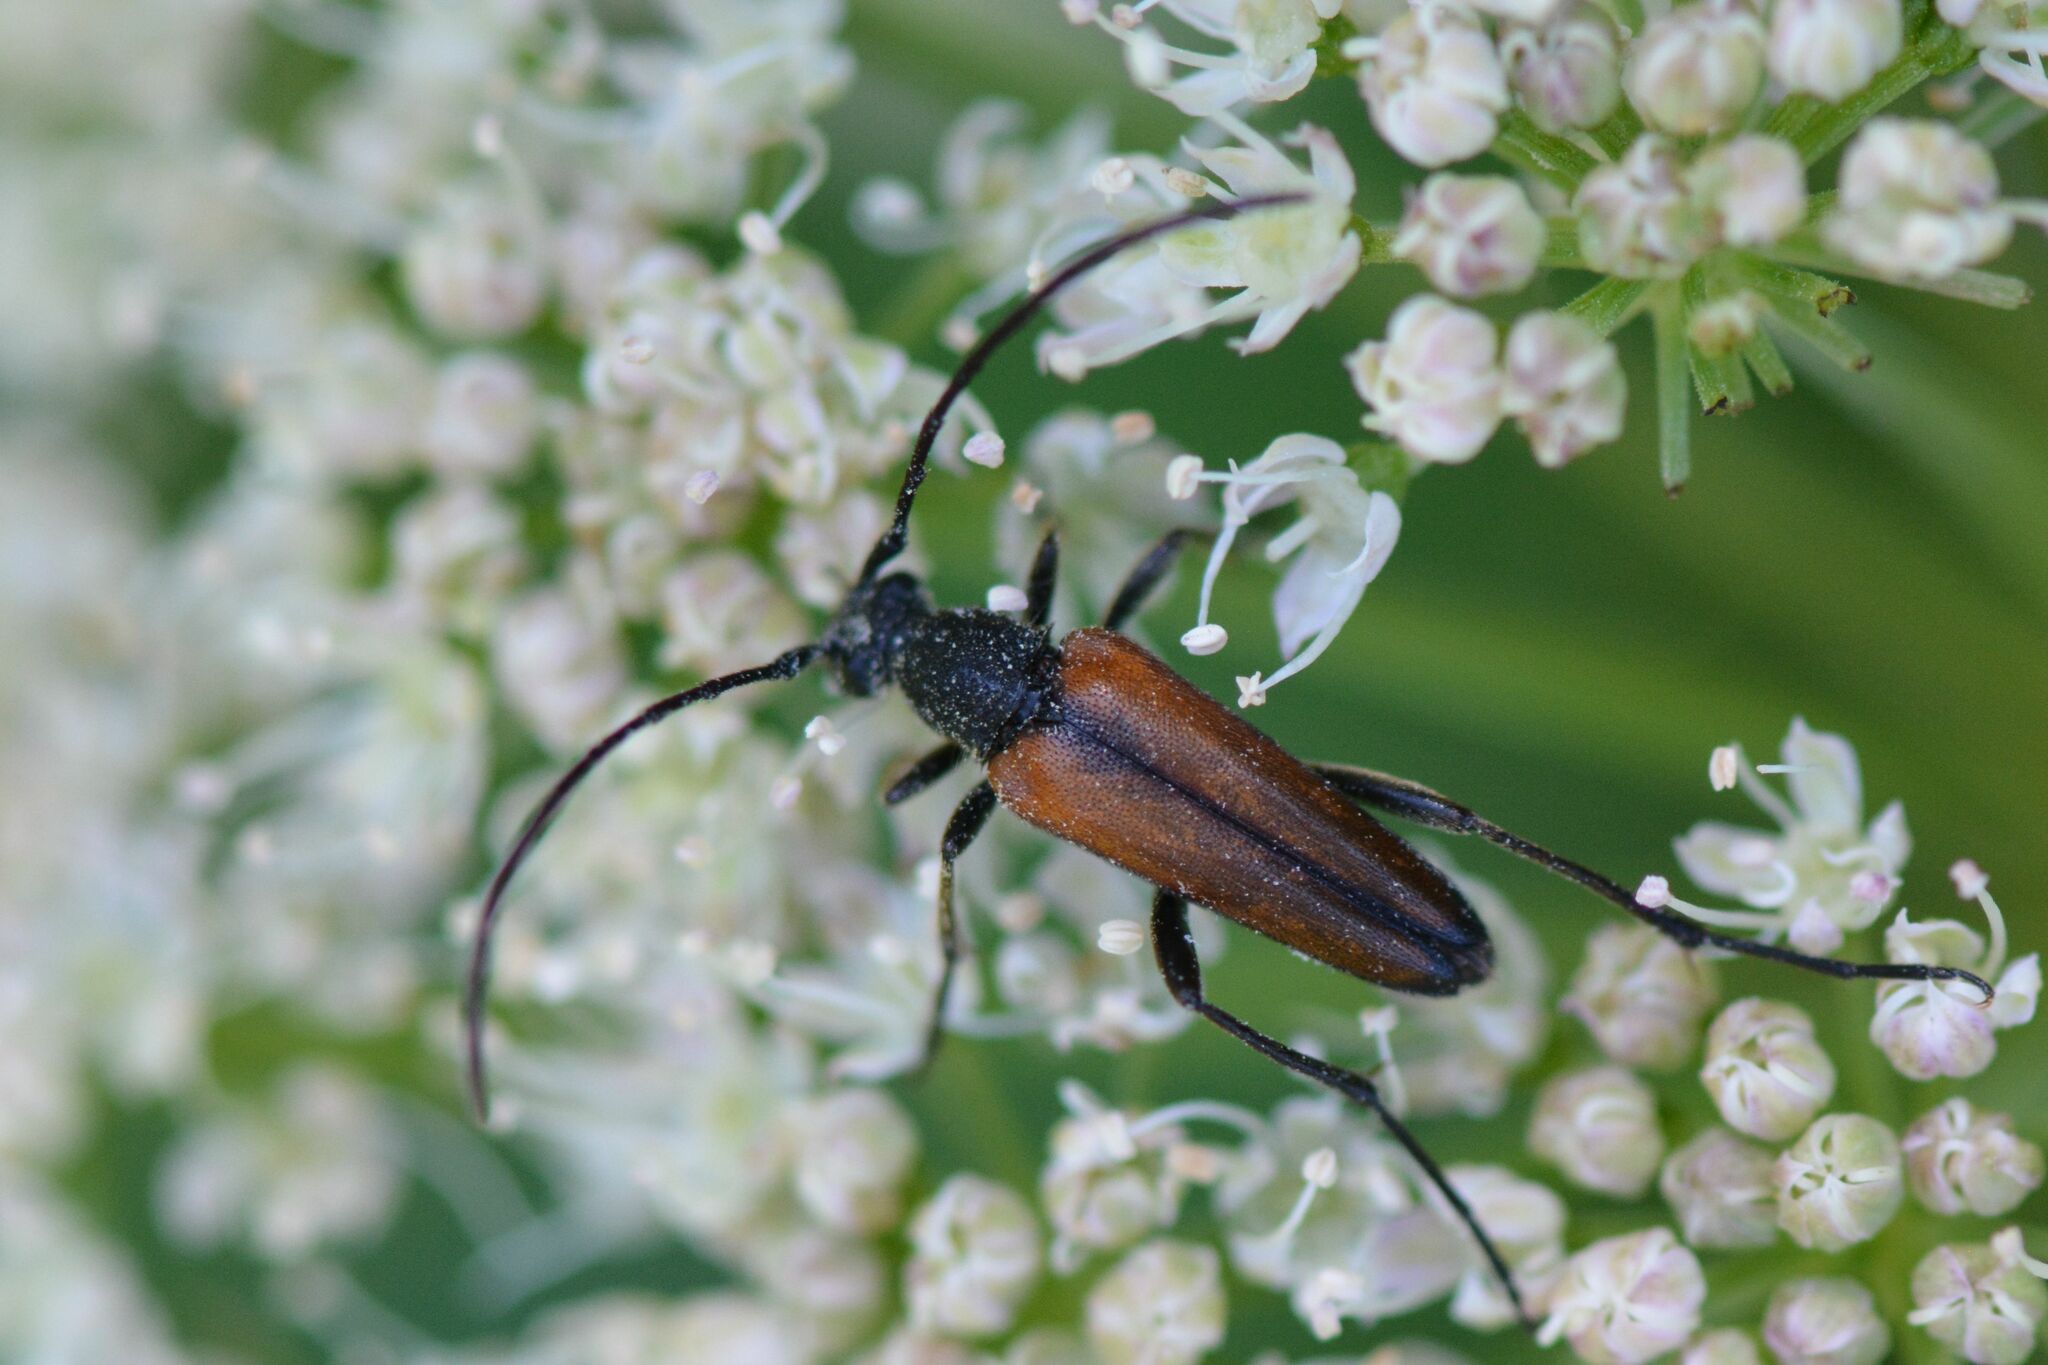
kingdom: Animalia
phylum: Arthropoda
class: Insecta
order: Coleoptera
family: Cerambycidae
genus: Stenurella
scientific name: Stenurella melanura
